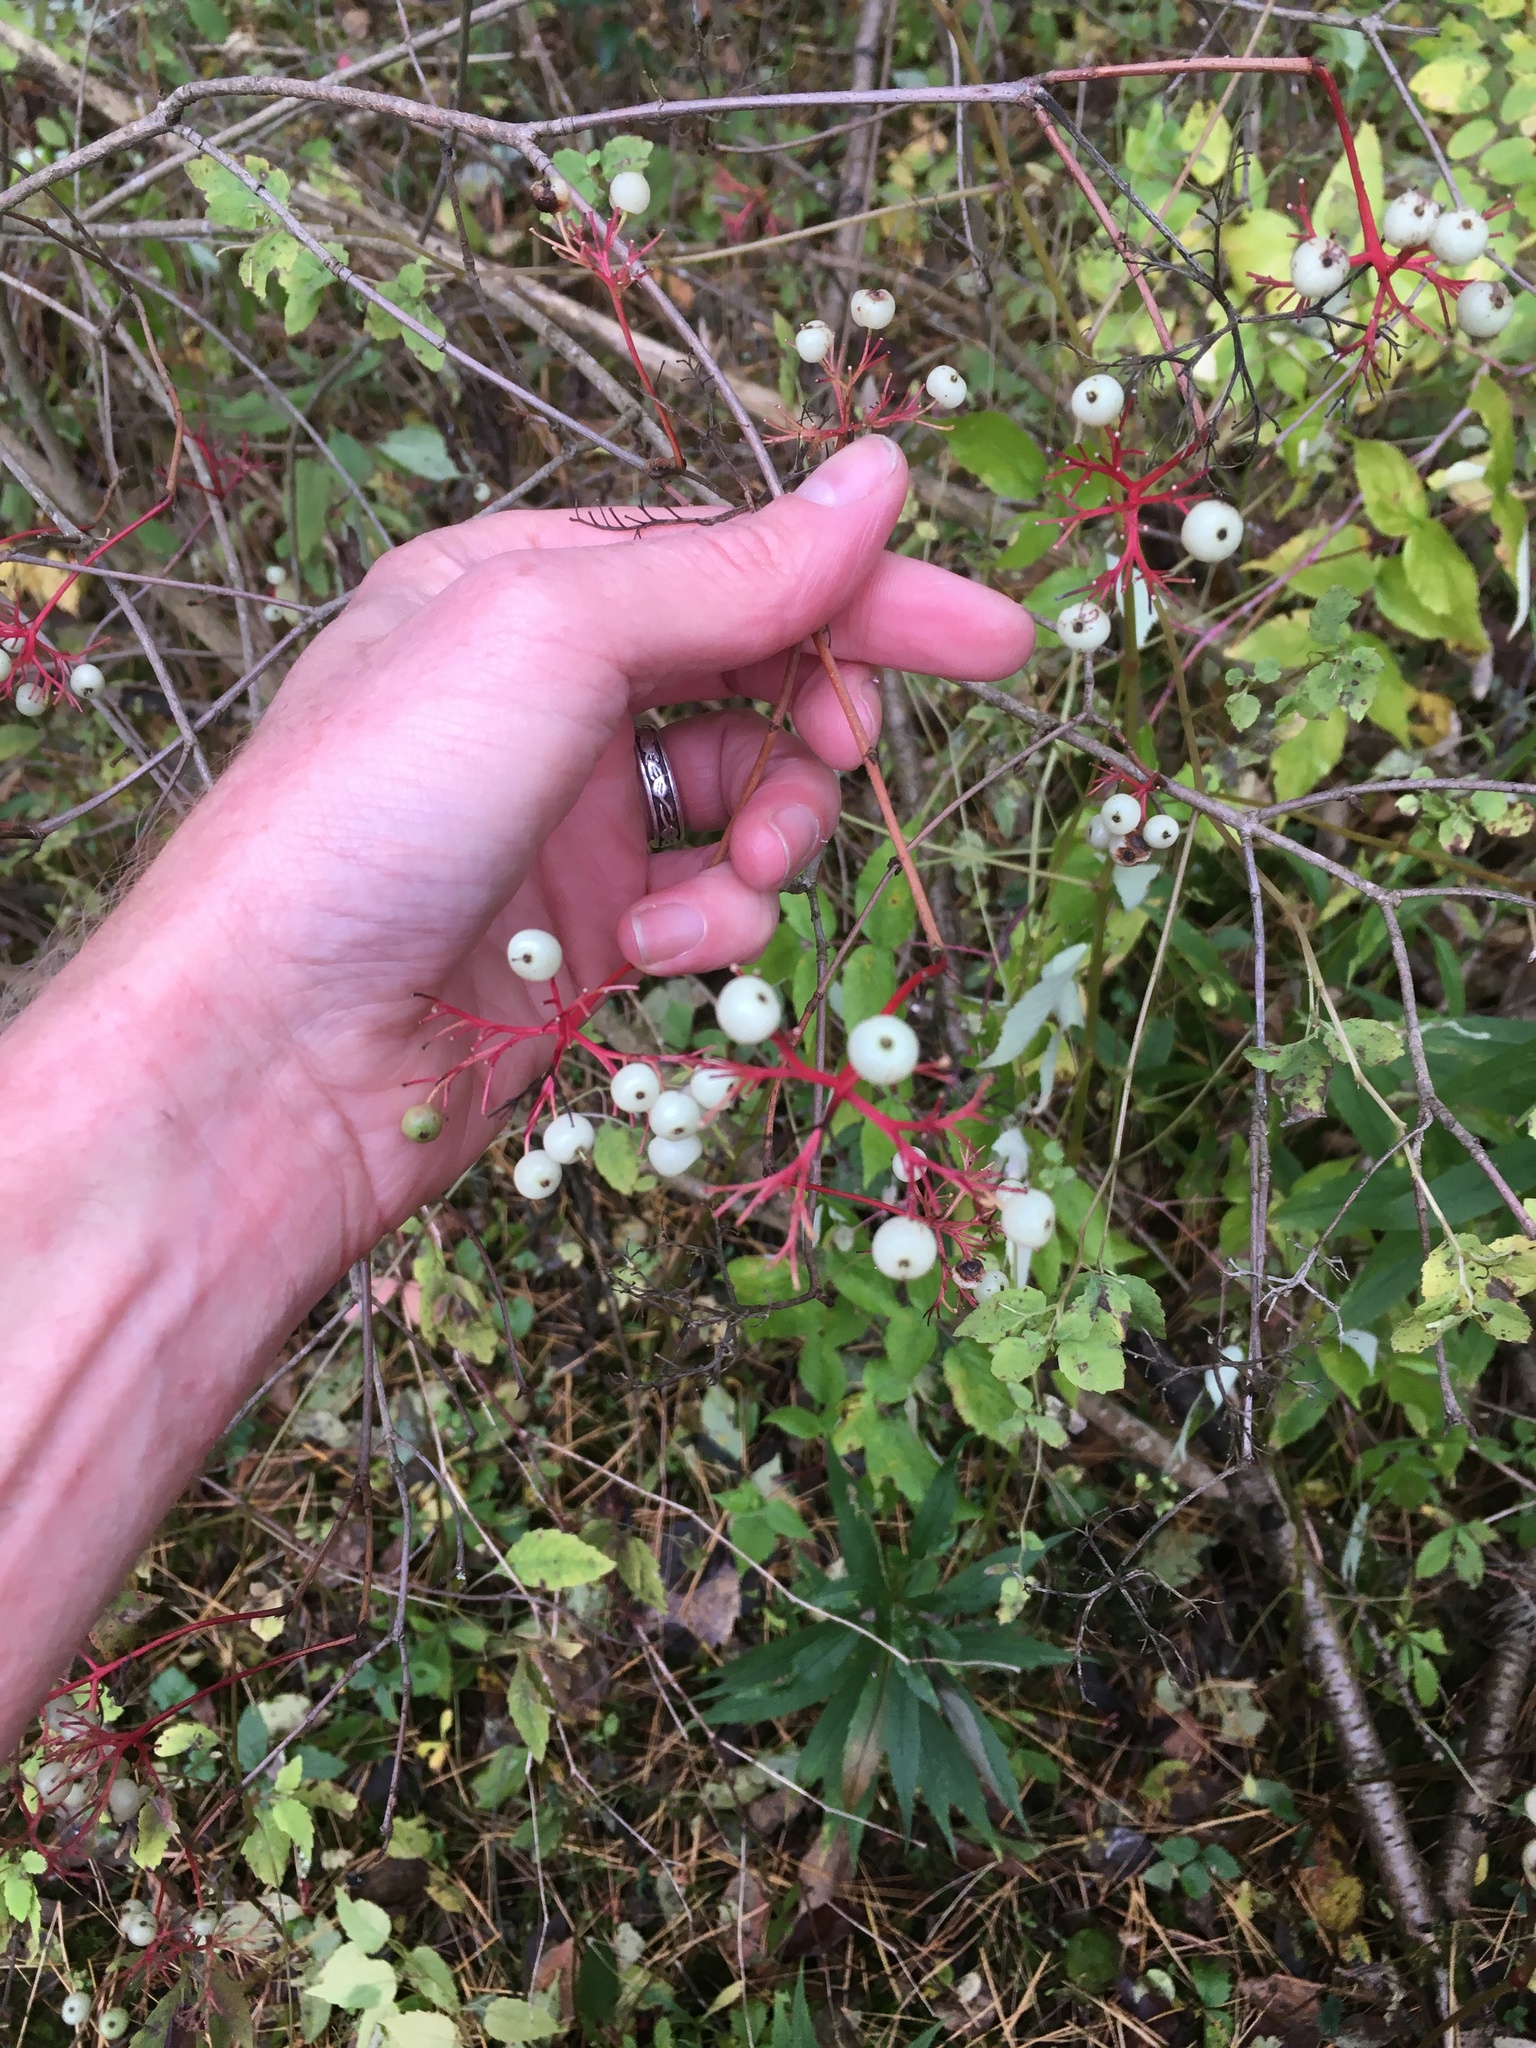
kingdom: Plantae
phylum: Tracheophyta
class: Magnoliopsida
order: Cornales
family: Cornaceae
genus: Cornus
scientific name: Cornus racemosa
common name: Panicled dogwood
